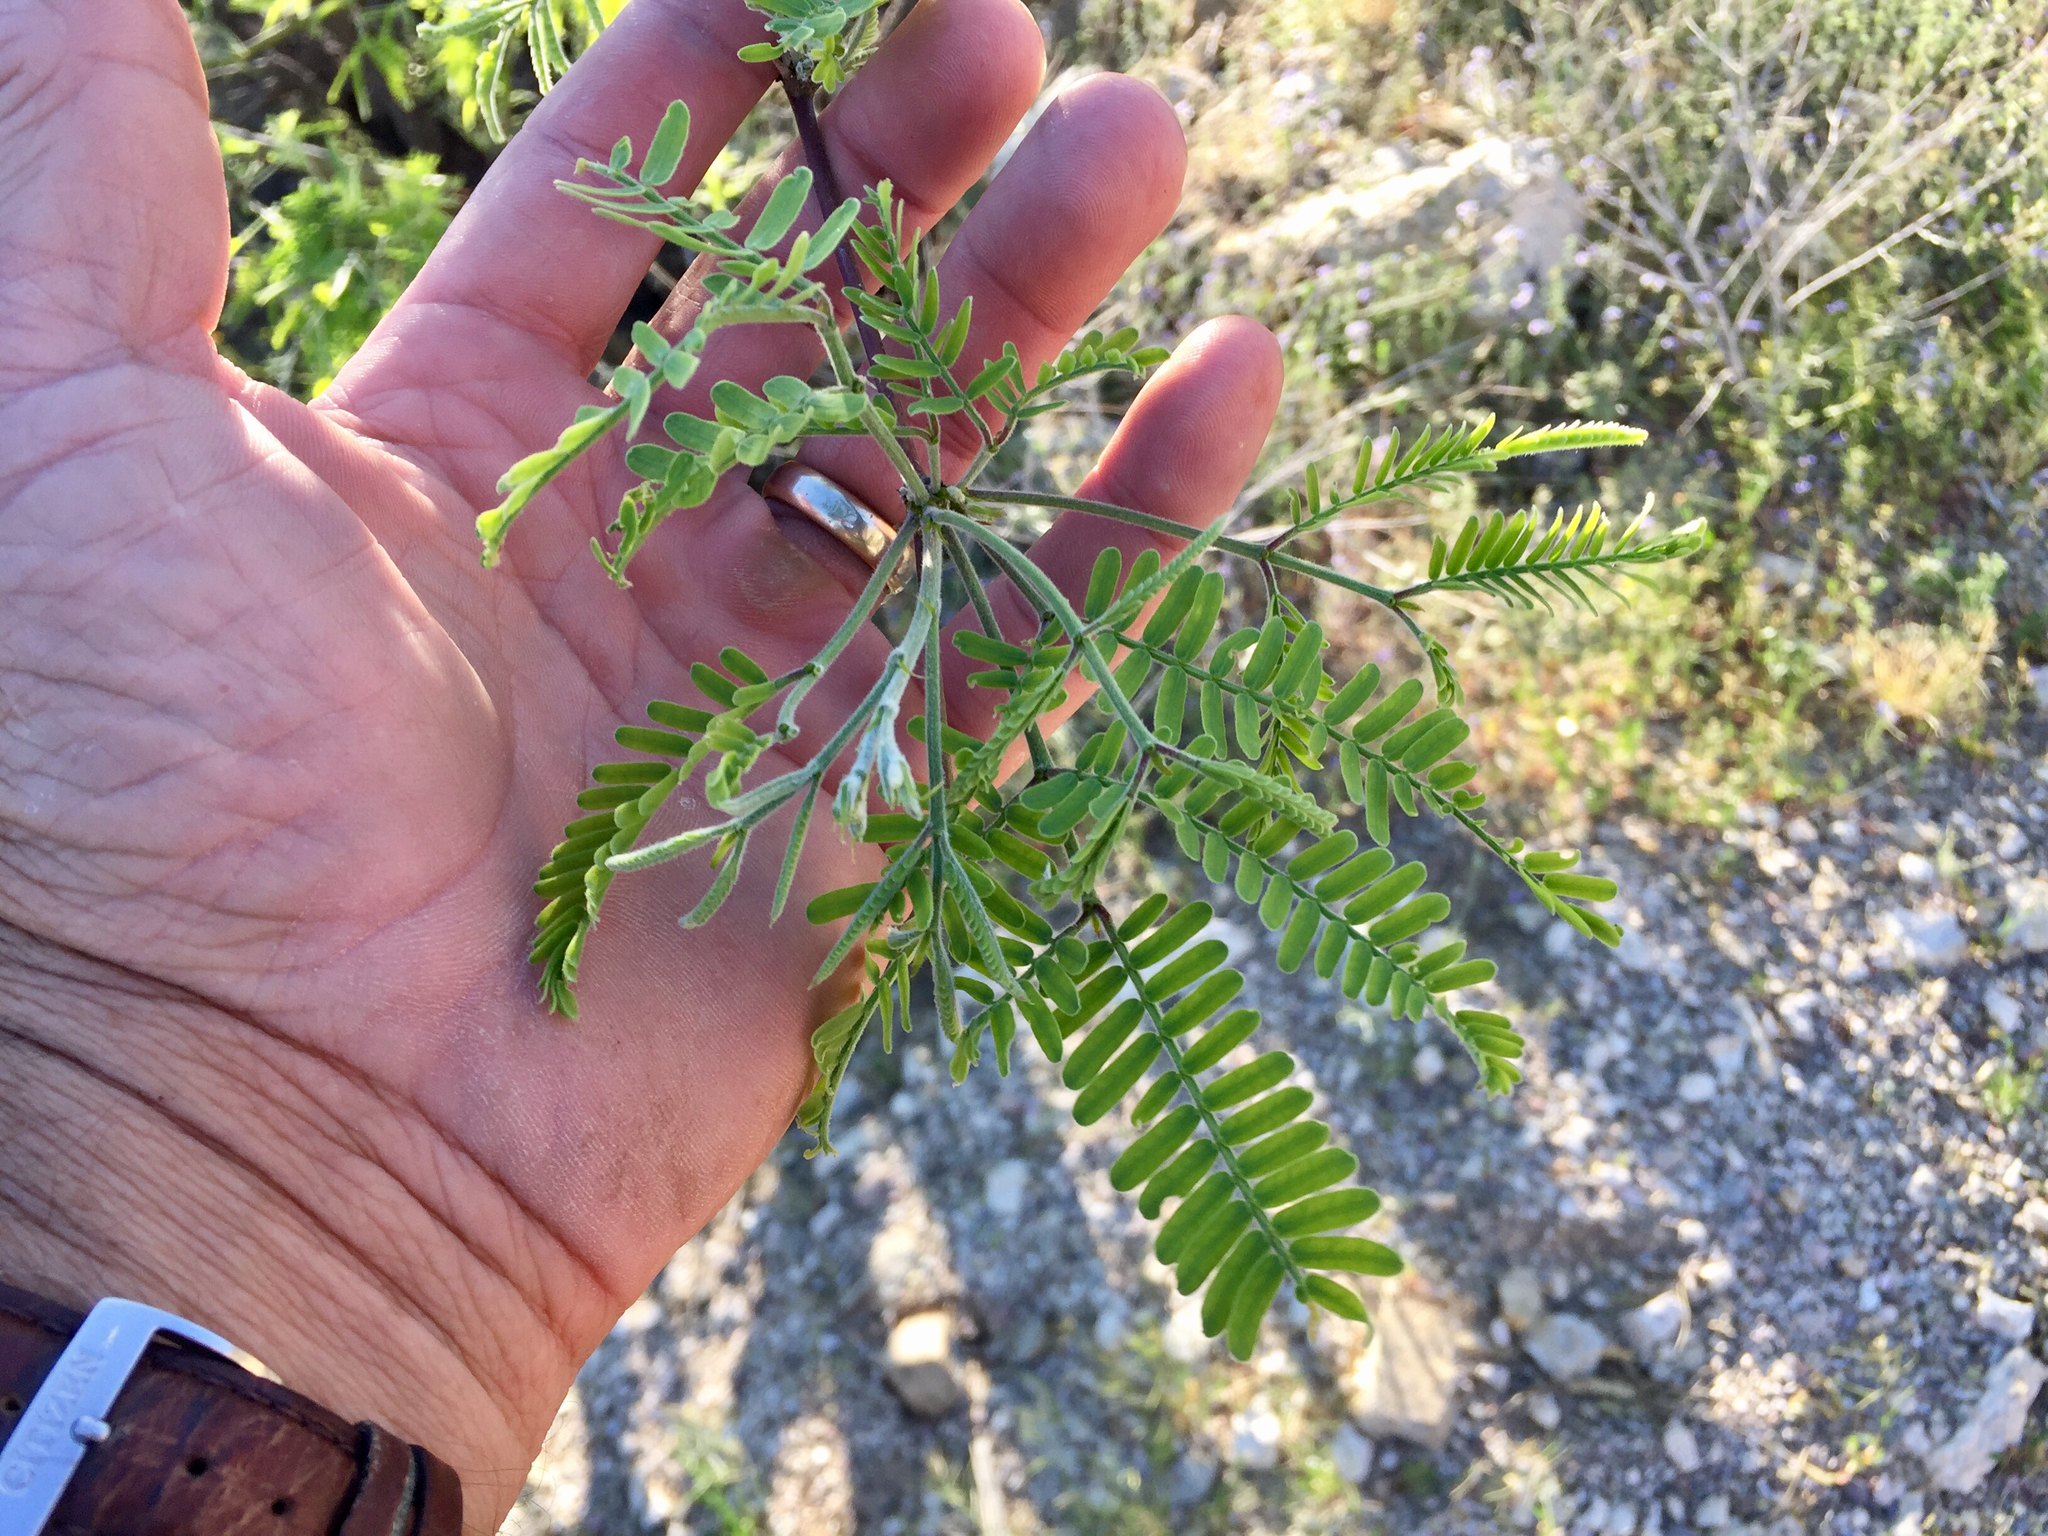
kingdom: Plantae
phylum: Tracheophyta
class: Magnoliopsida
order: Fabales
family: Fabaceae
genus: Prosopis
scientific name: Prosopis velutina
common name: Velvet mesquite
